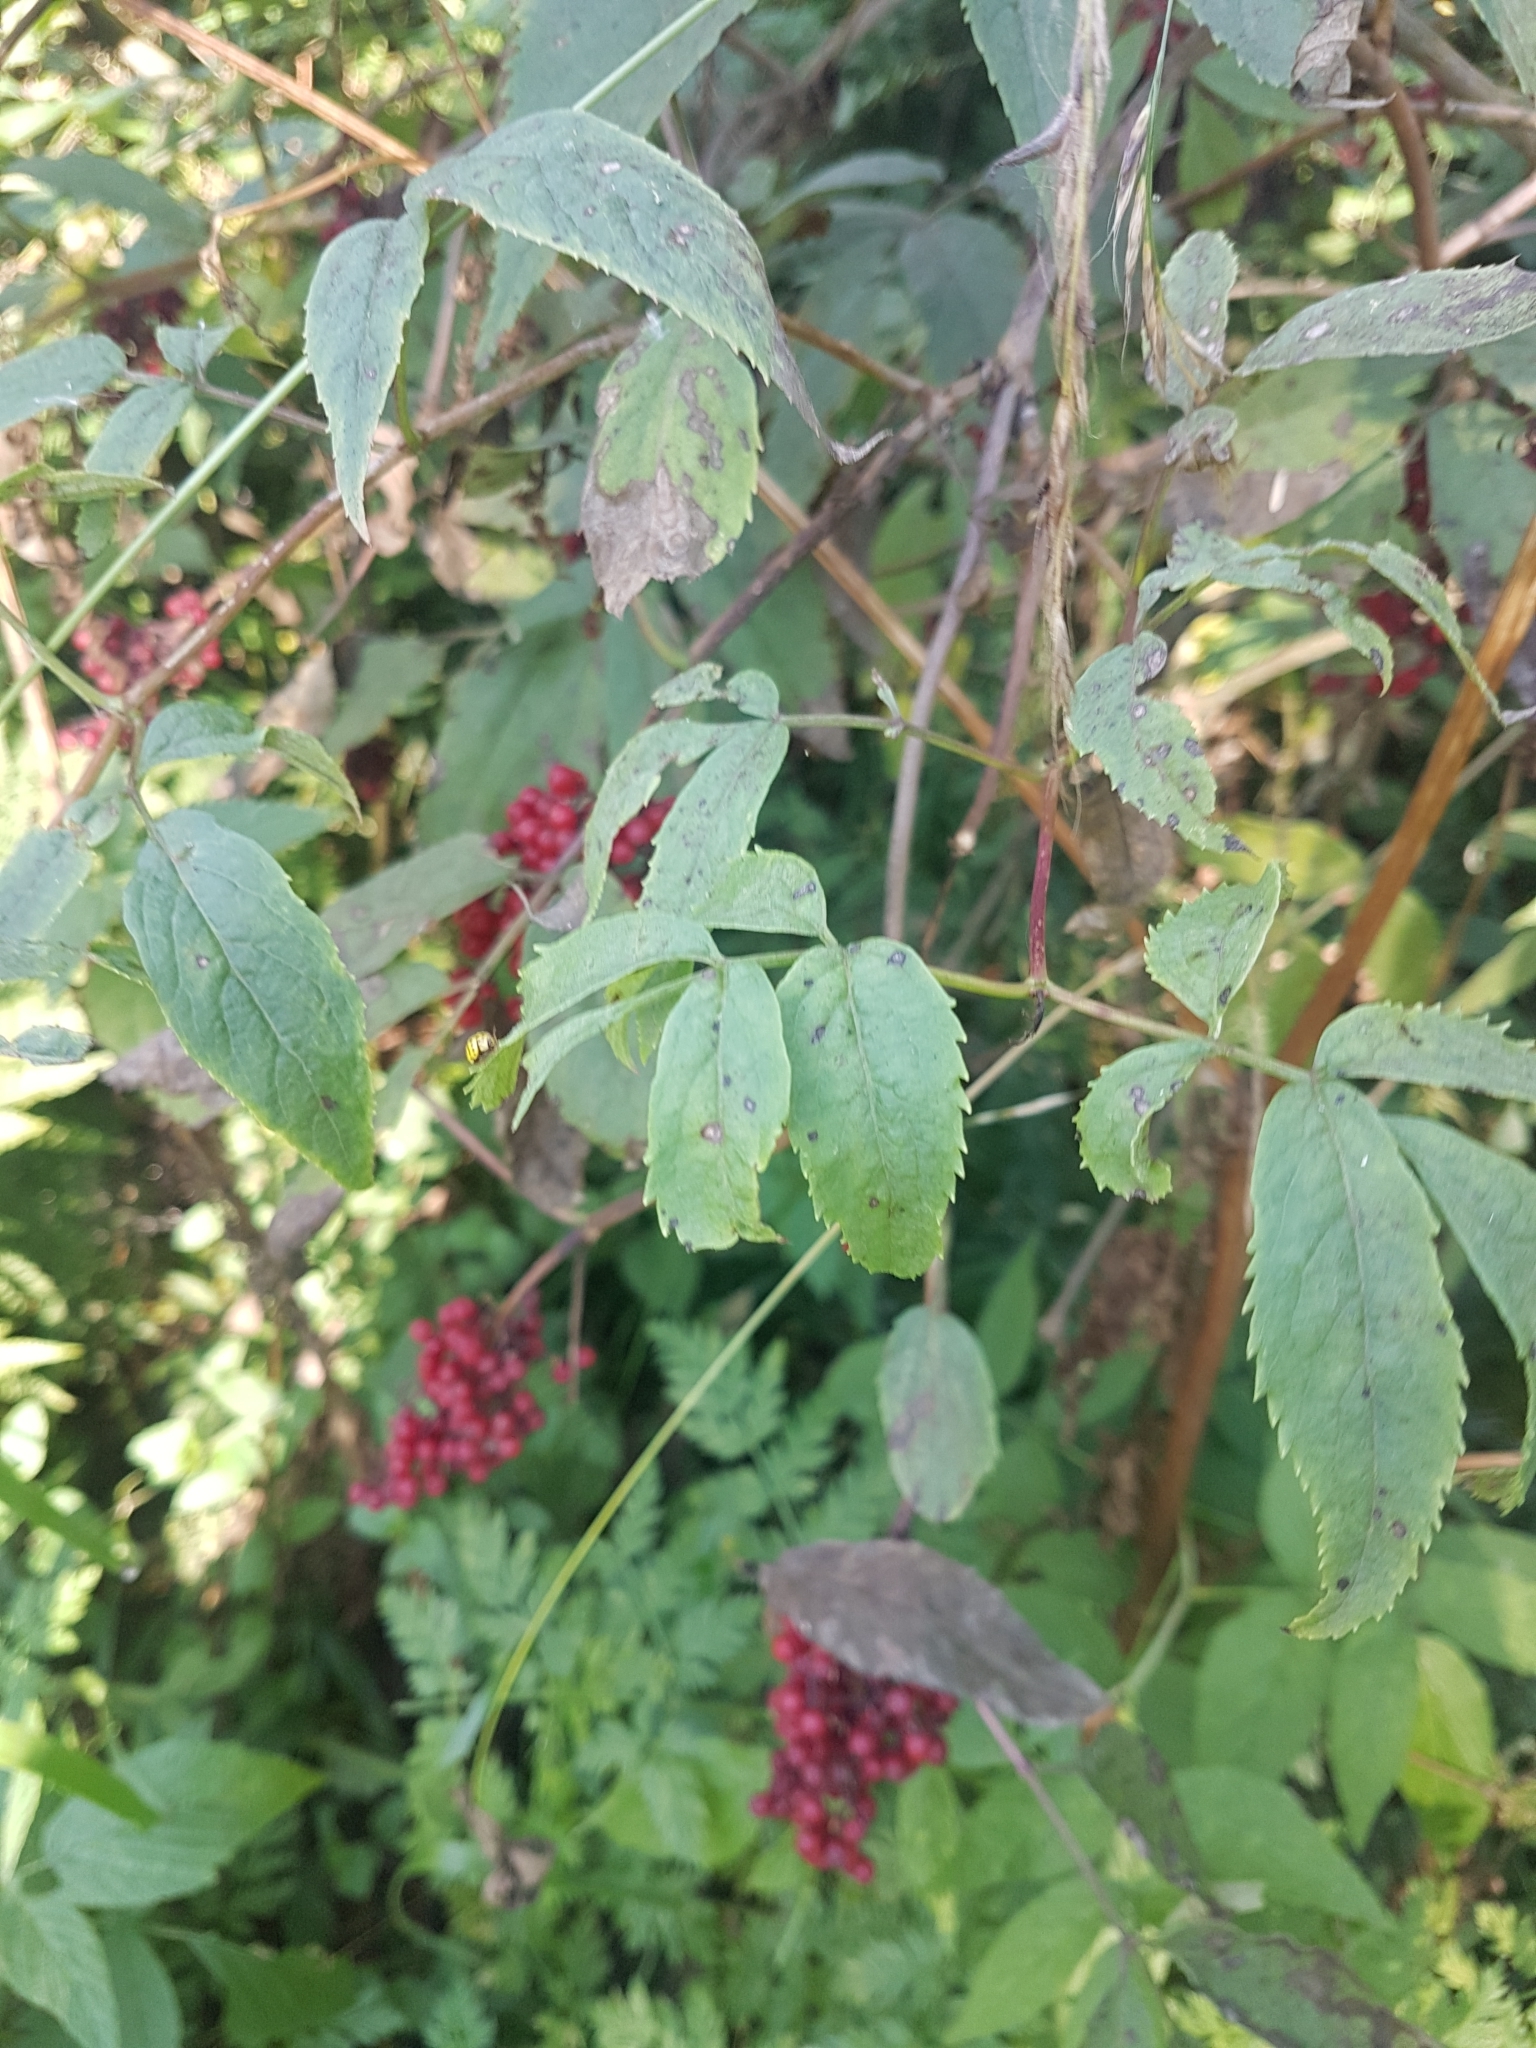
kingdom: Plantae
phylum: Tracheophyta
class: Magnoliopsida
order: Dipsacales
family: Viburnaceae
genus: Sambucus
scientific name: Sambucus racemosa
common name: Red-berried elder
